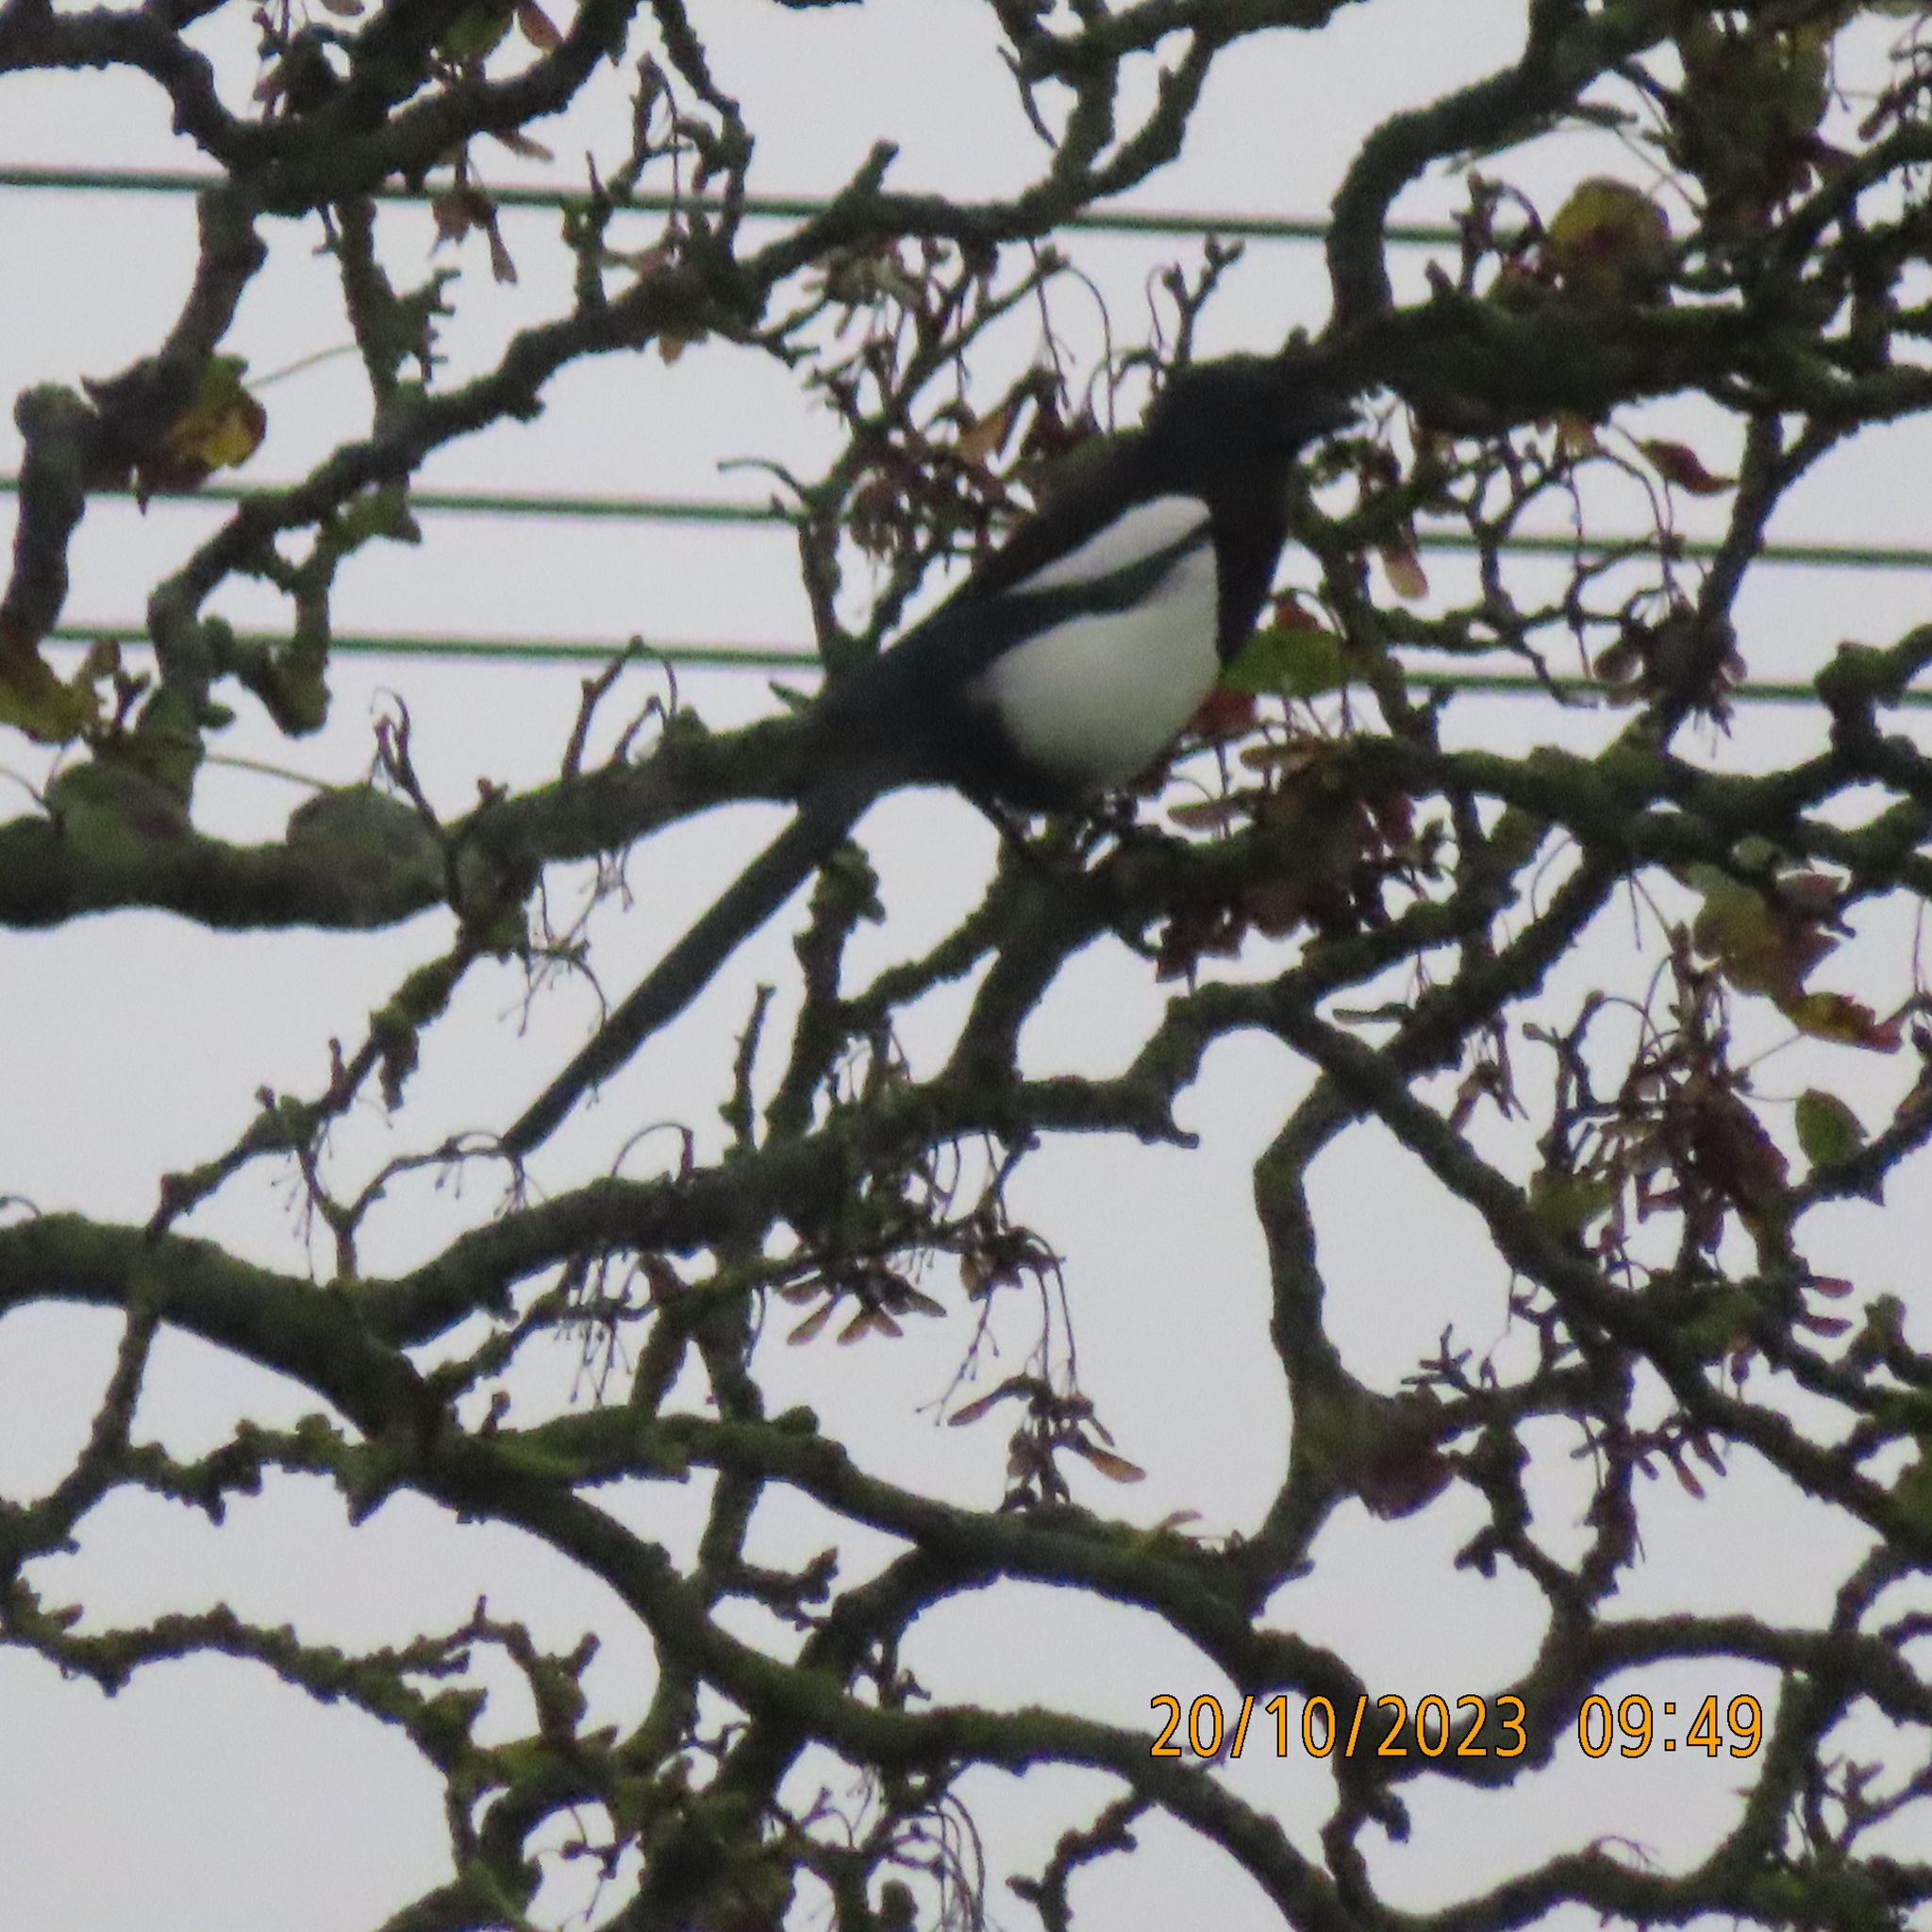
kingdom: Animalia
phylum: Chordata
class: Aves
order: Passeriformes
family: Corvidae
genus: Pica
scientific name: Pica pica
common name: Eurasian magpie
